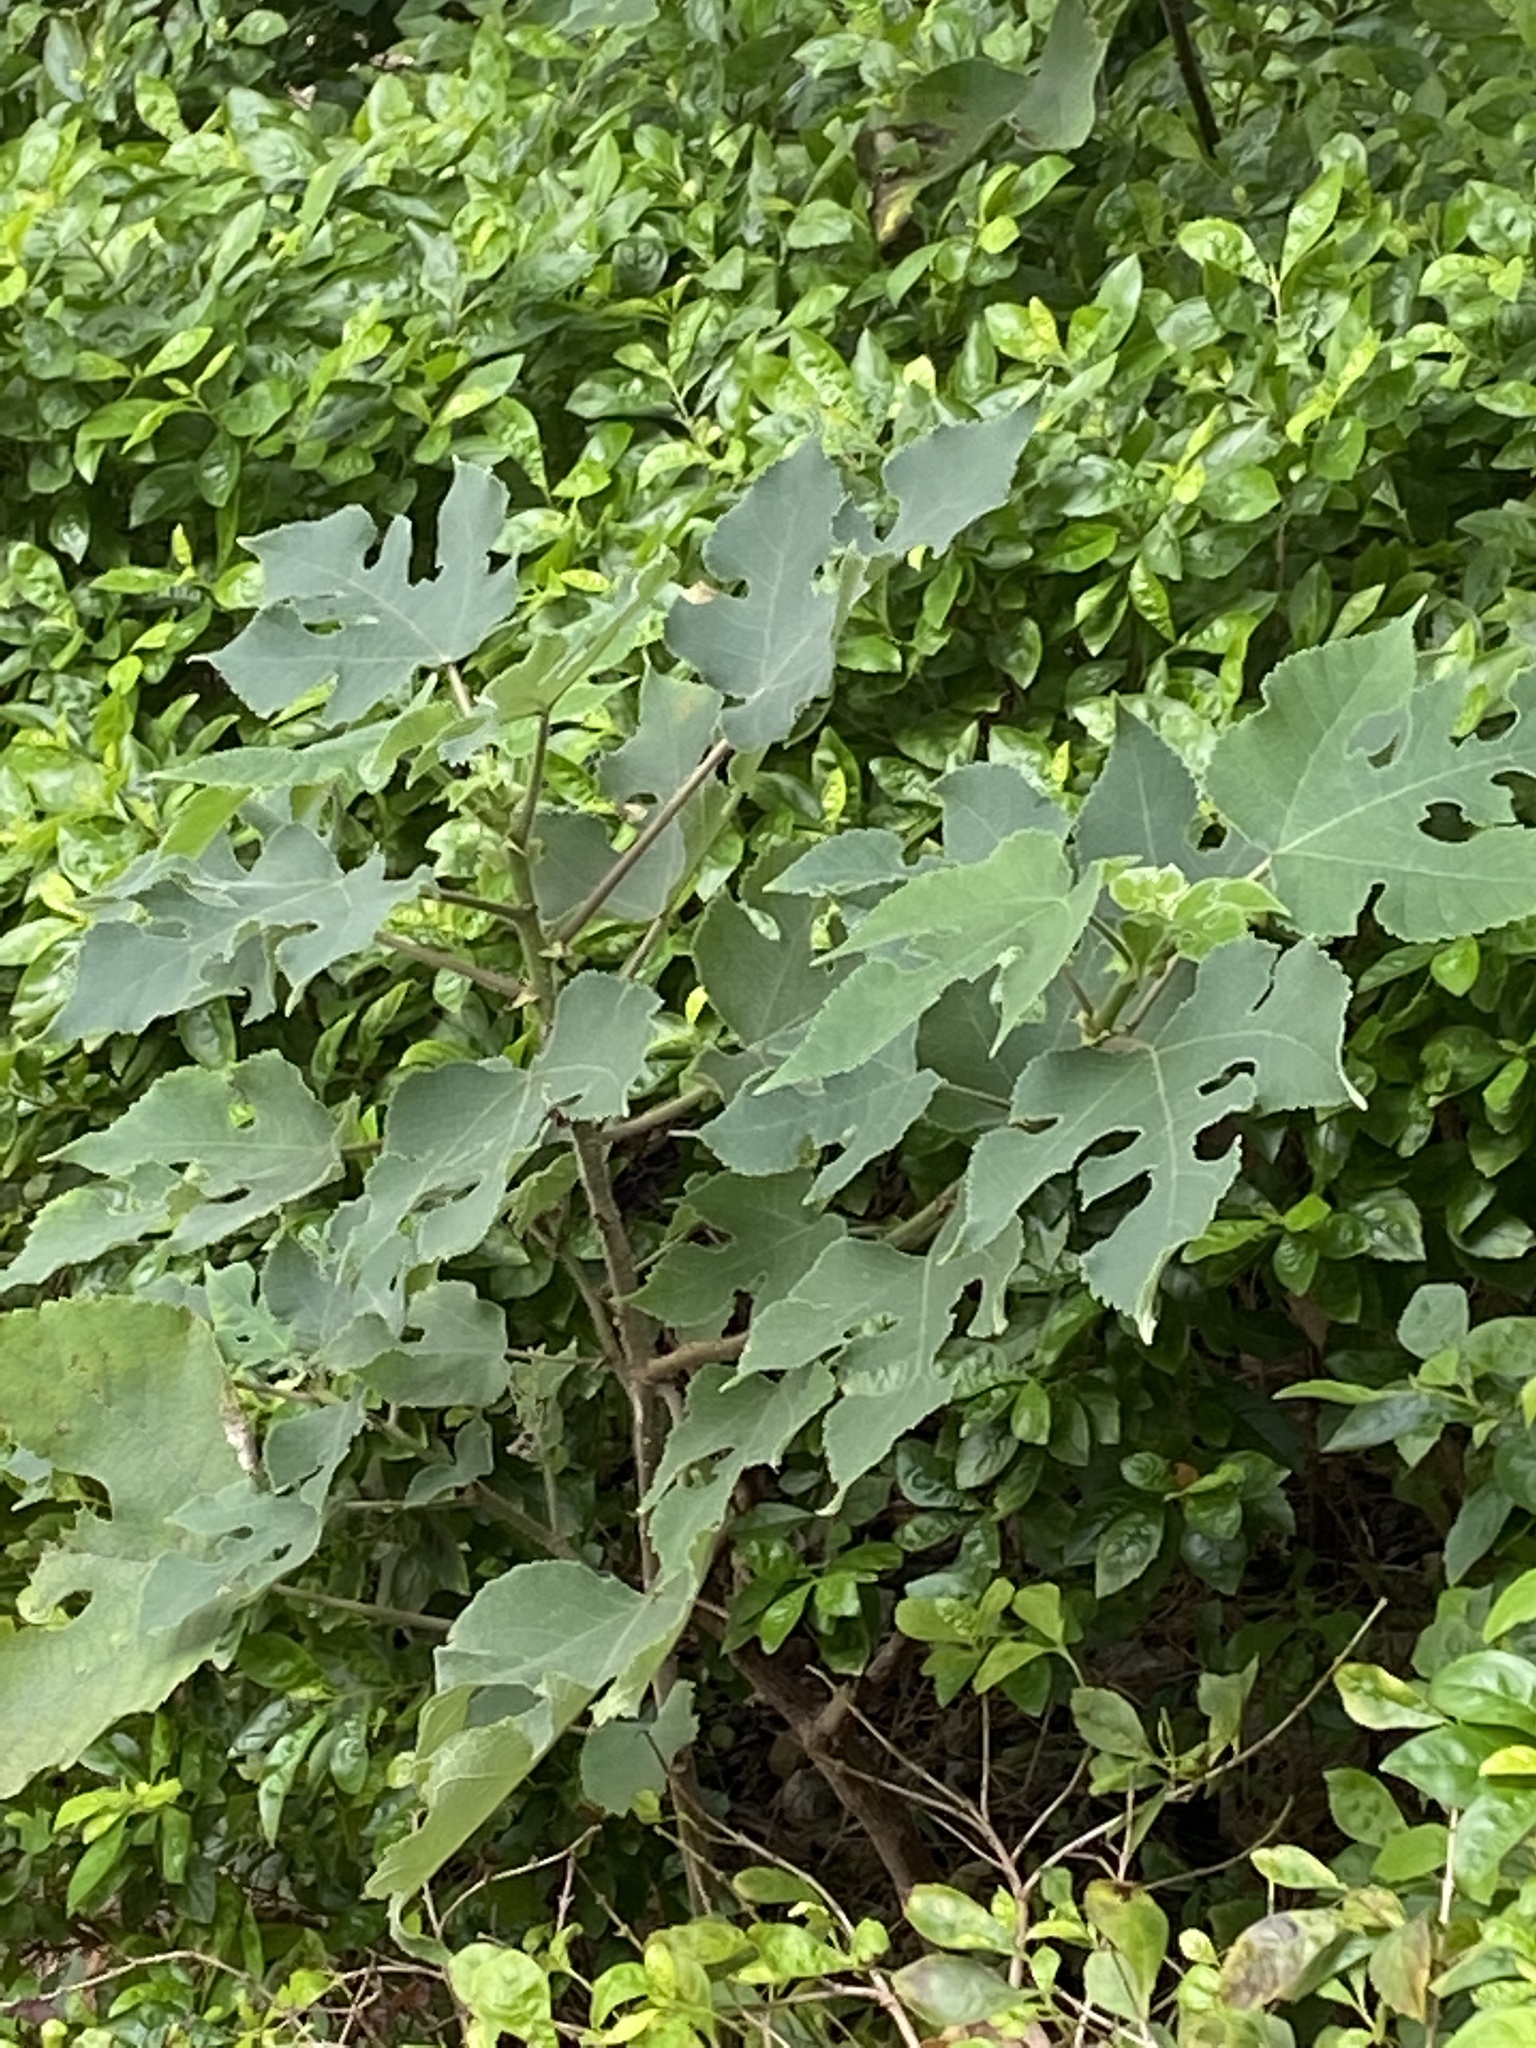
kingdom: Plantae
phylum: Tracheophyta
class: Magnoliopsida
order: Rosales
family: Moraceae
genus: Broussonetia
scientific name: Broussonetia papyrifera
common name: Paper mulberry
